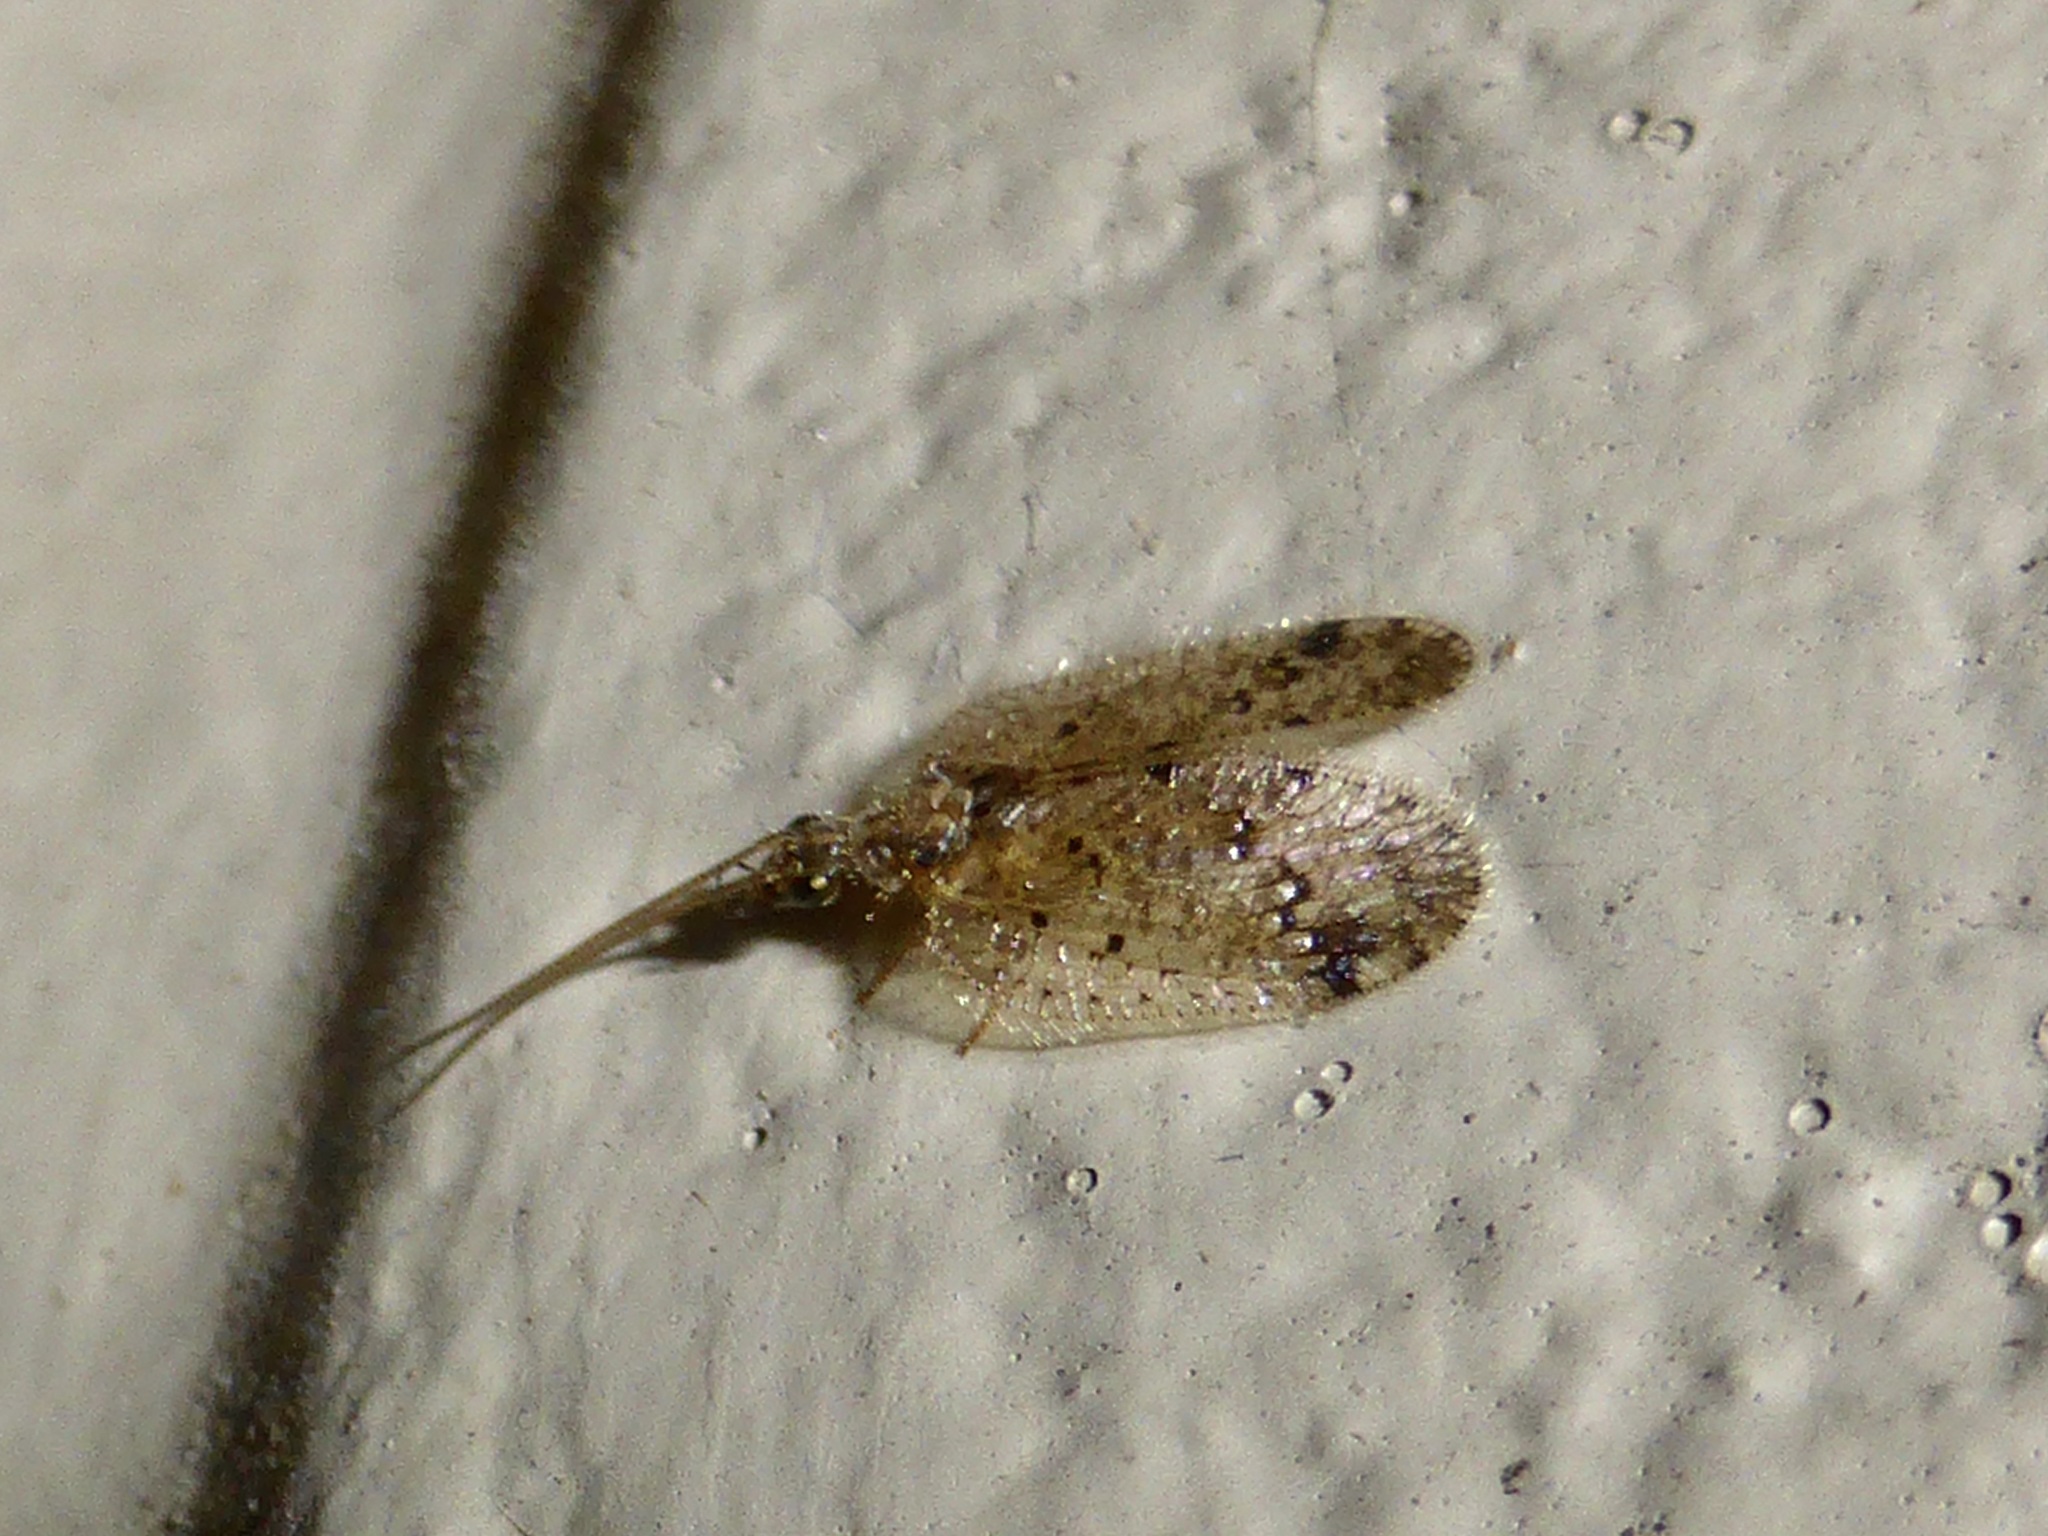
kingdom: Animalia
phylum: Arthropoda
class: Insecta
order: Neuroptera
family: Hemerobiidae
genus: Psectra
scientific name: Psectra nakaharai
